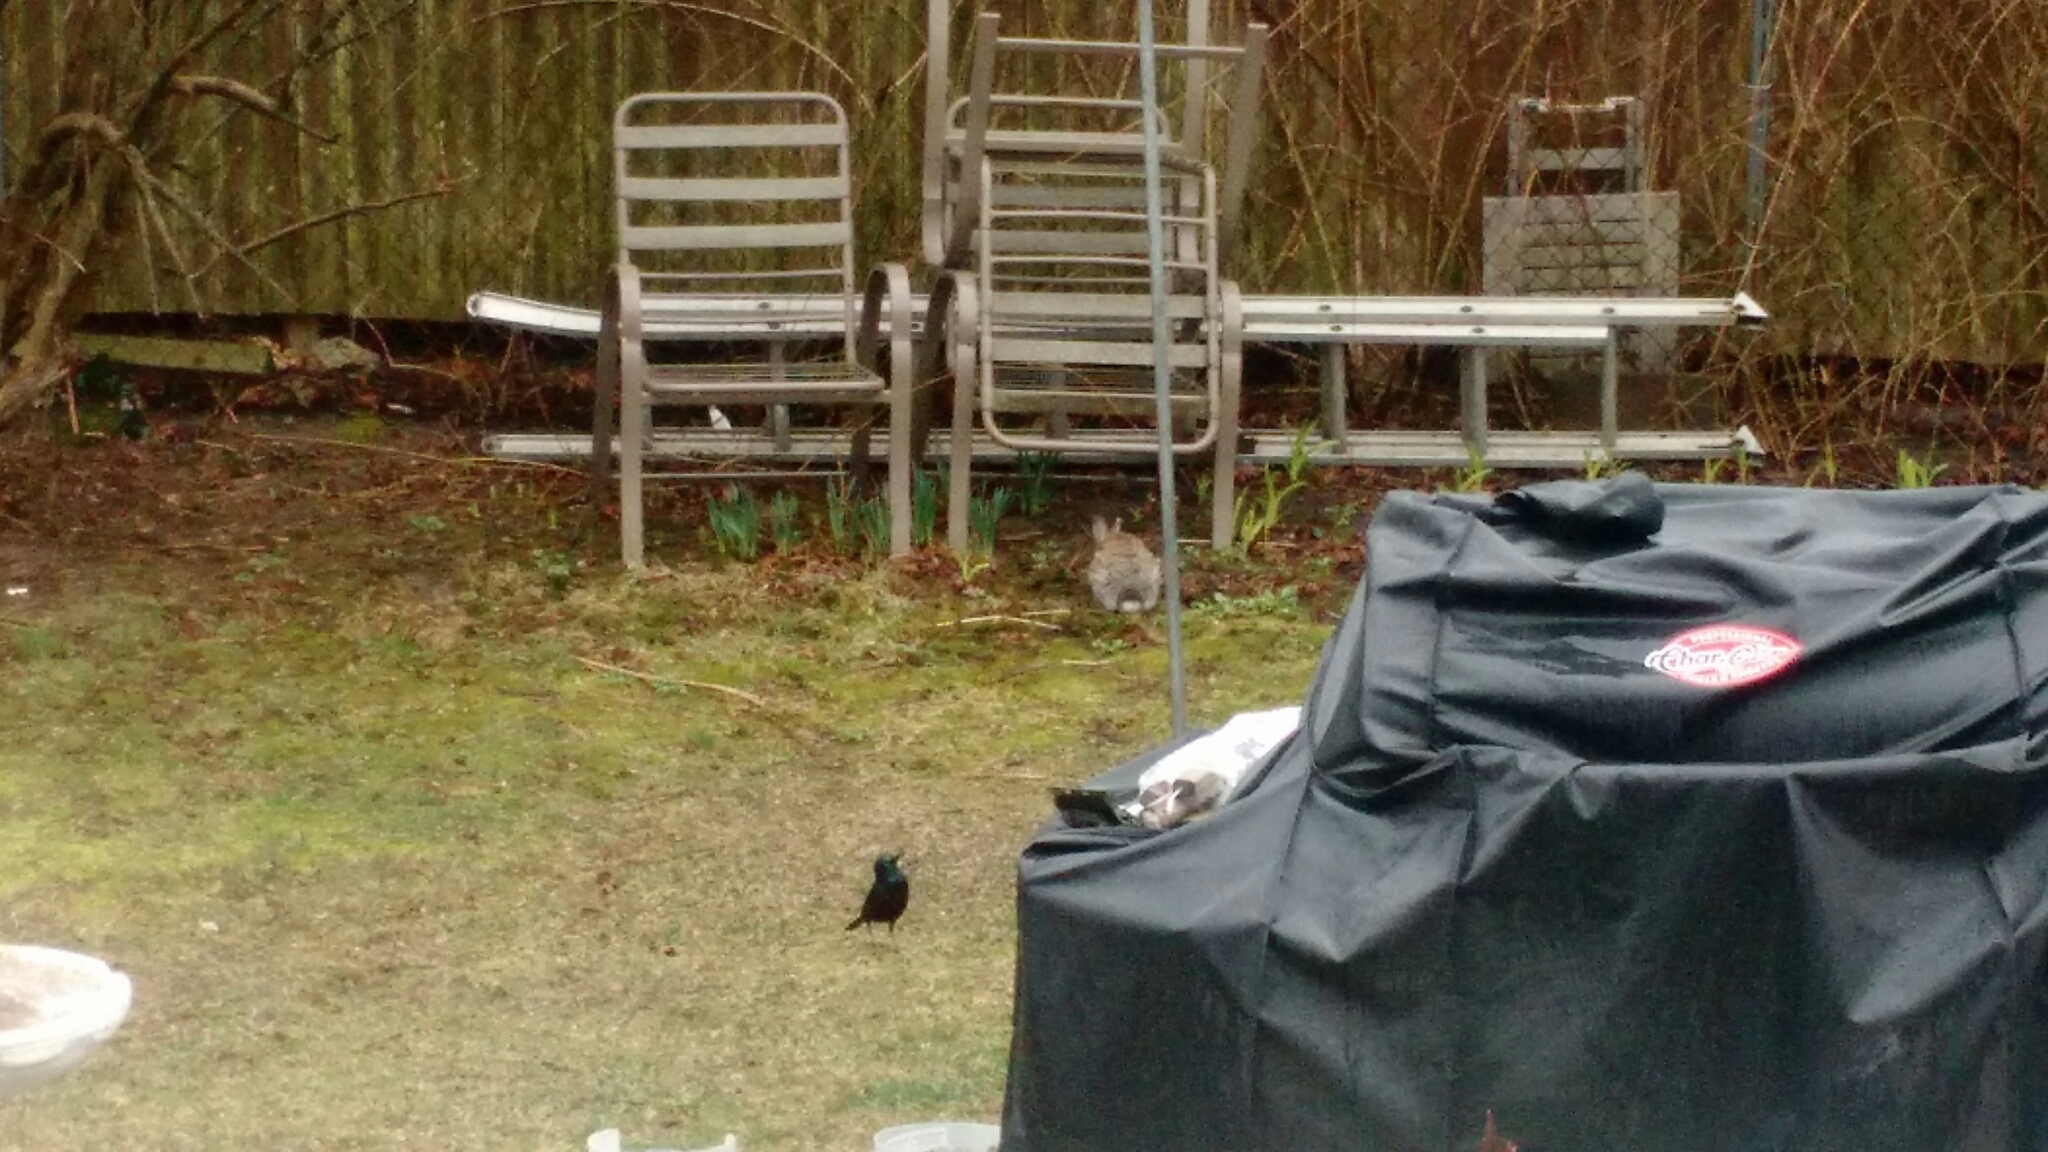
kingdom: Animalia
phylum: Chordata
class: Mammalia
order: Lagomorpha
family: Leporidae
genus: Sylvilagus
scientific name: Sylvilagus floridanus
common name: Eastern cottontail
